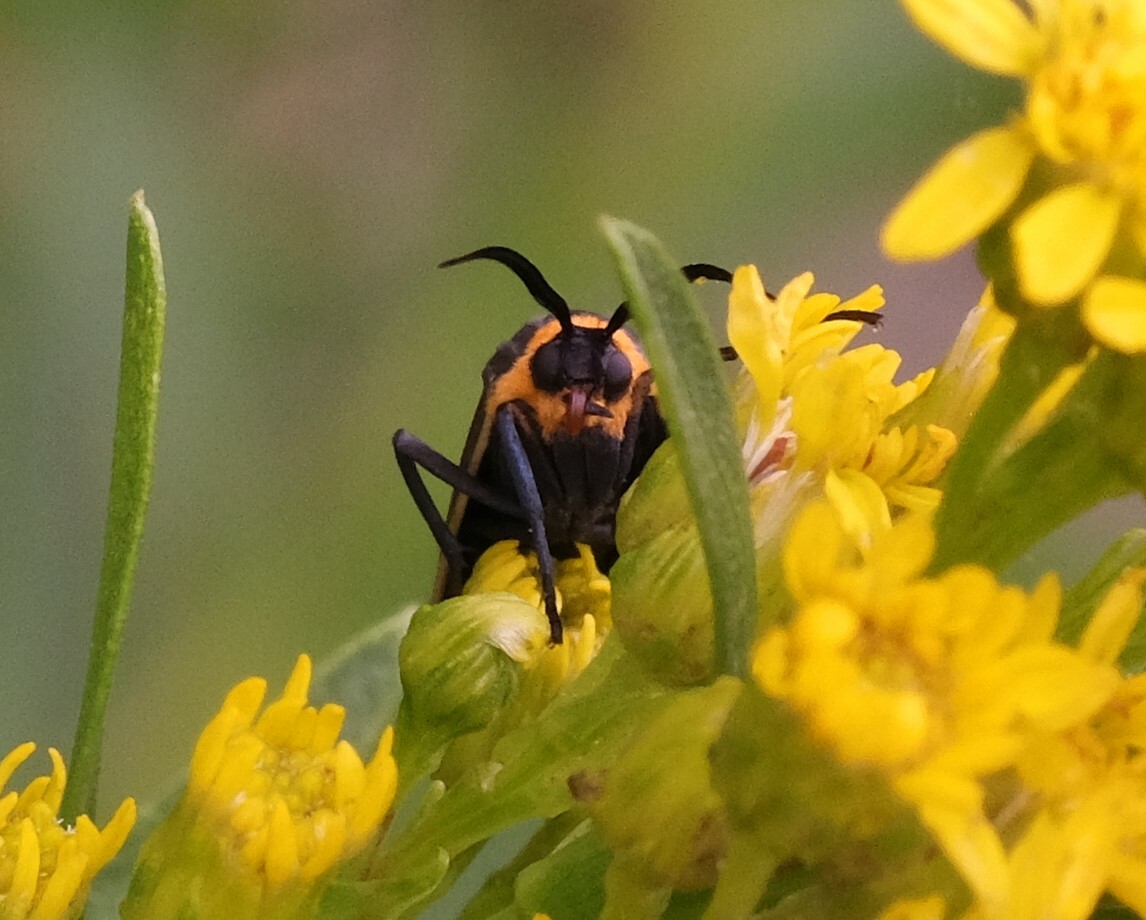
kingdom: Animalia
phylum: Arthropoda
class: Insecta
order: Lepidoptera
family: Erebidae
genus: Cisseps
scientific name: Cisseps fulvicollis
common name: Yellow-collared scape moth
